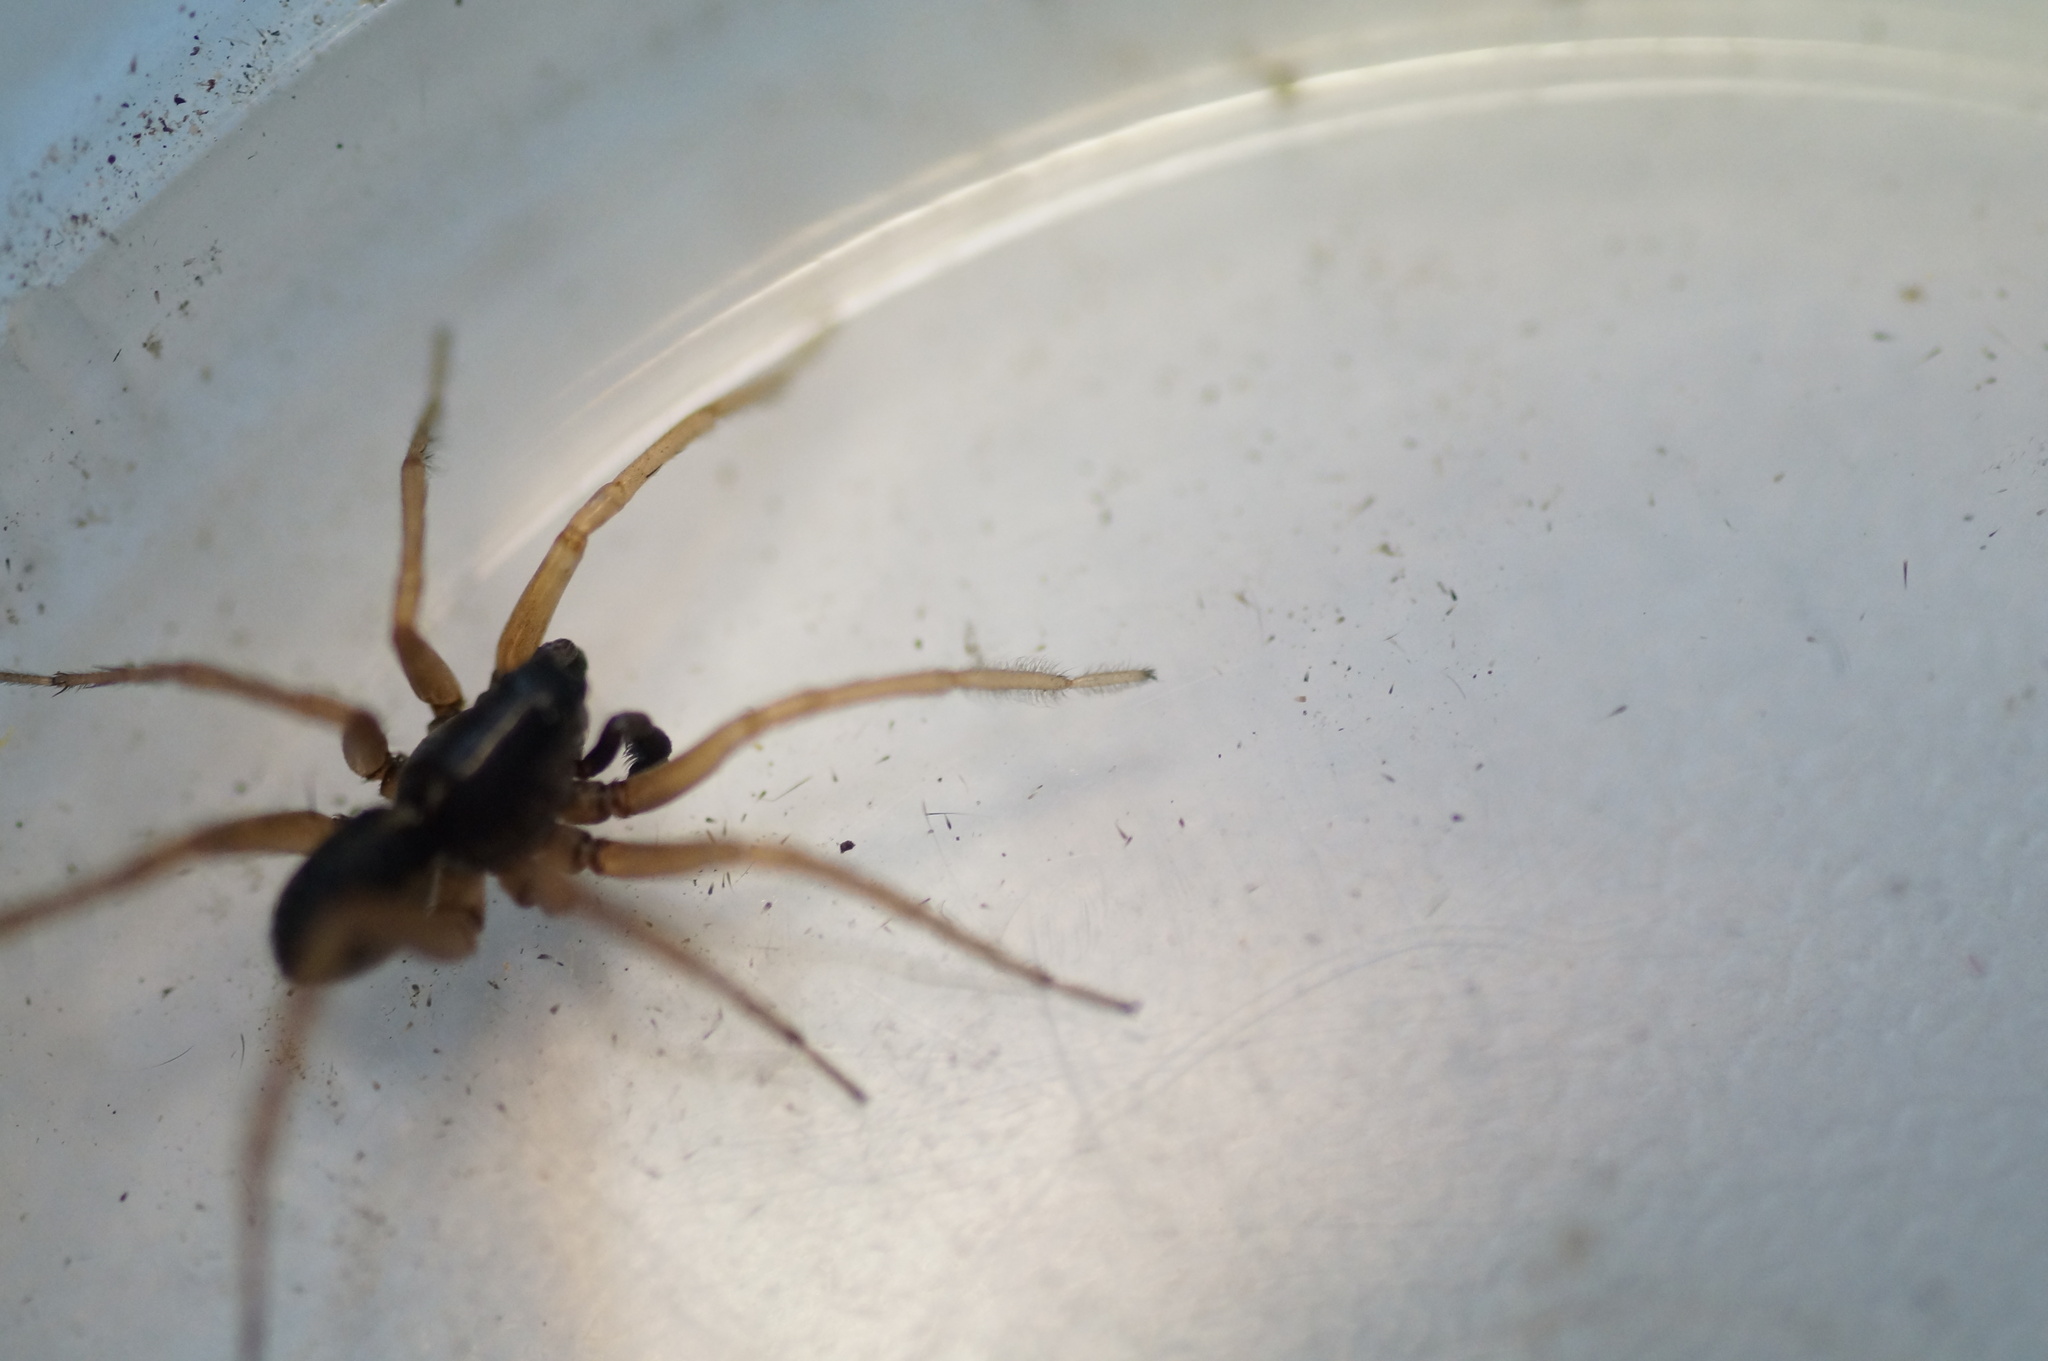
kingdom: Animalia
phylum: Arthropoda
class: Arachnida
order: Araneae
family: Lycosidae
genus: Pardosa
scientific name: Pardosa fulvipes
